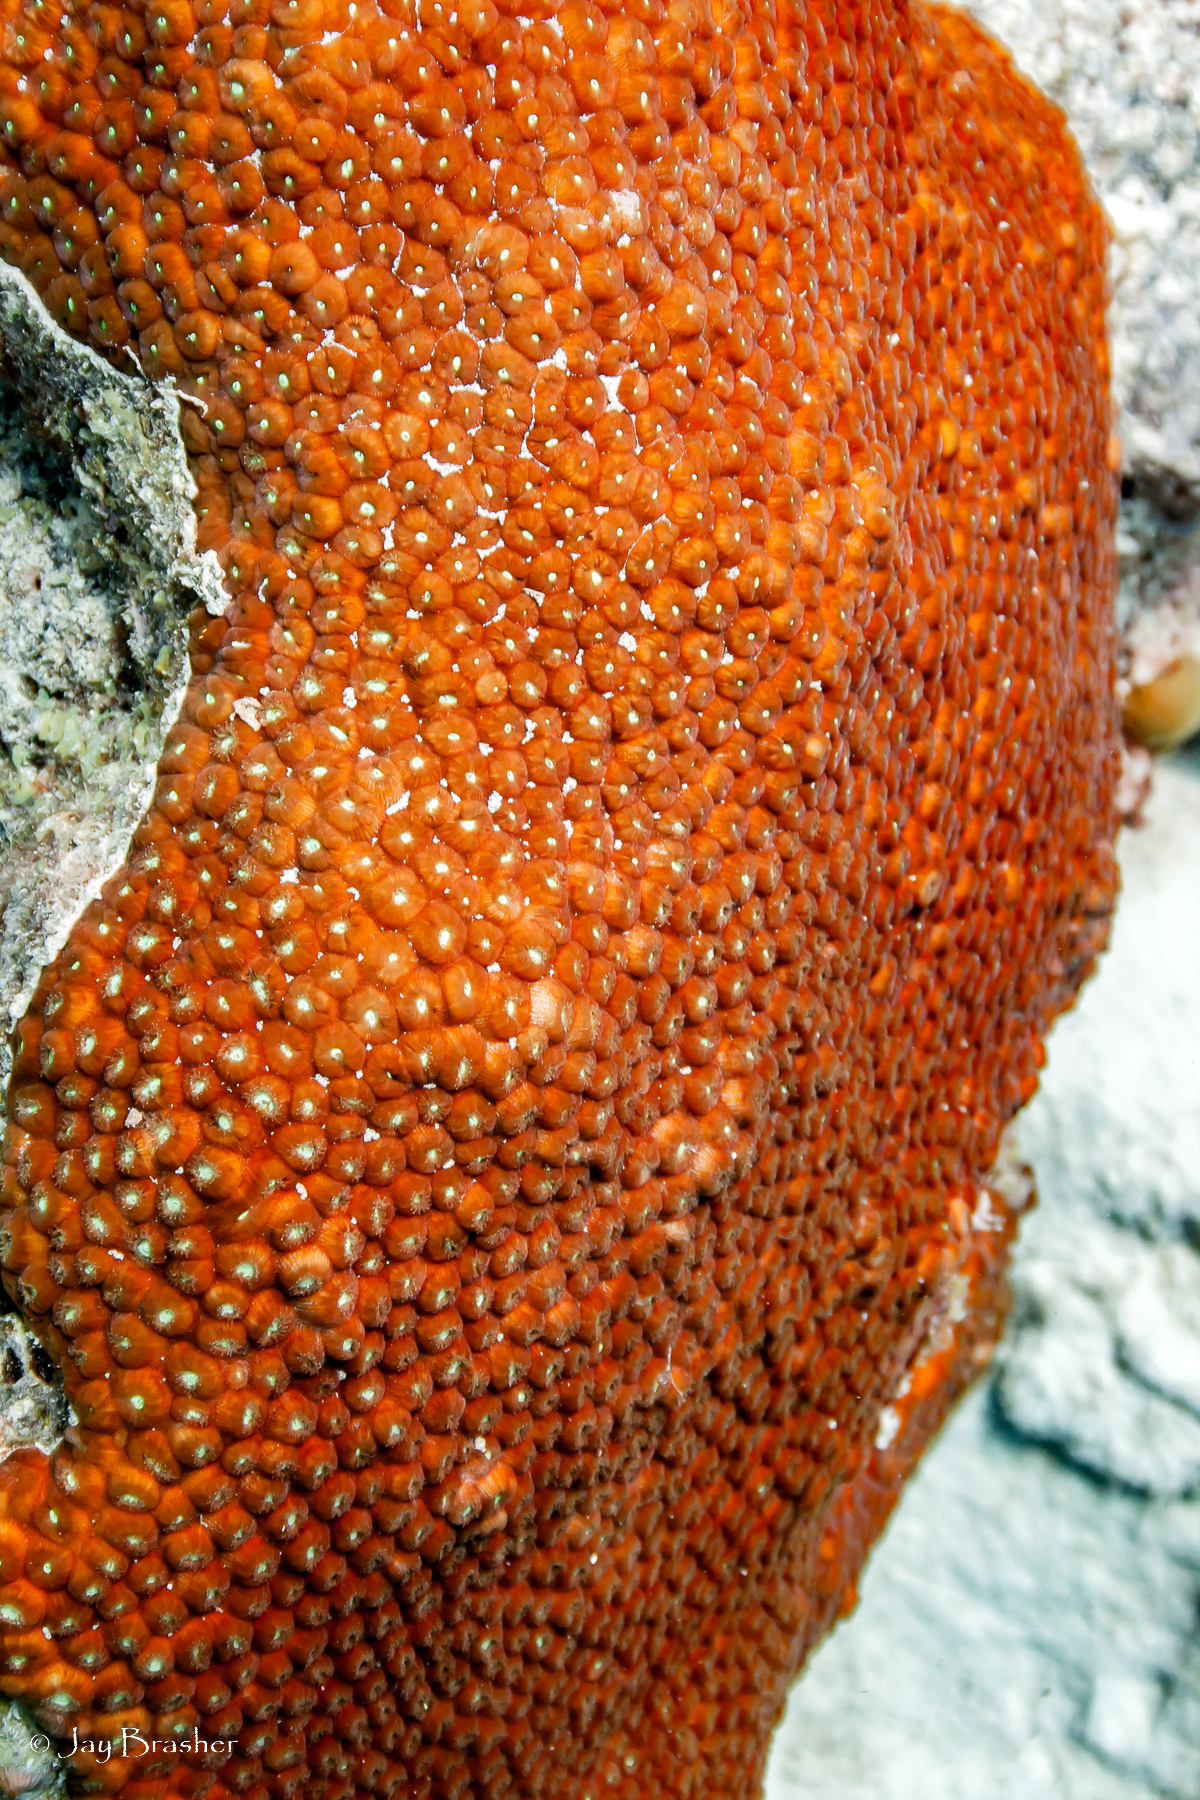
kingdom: Animalia
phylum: Cnidaria
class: Anthozoa
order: Scleractinia
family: Montastraeidae
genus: Montastraea
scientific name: Montastraea cavernosa
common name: Great star coral
